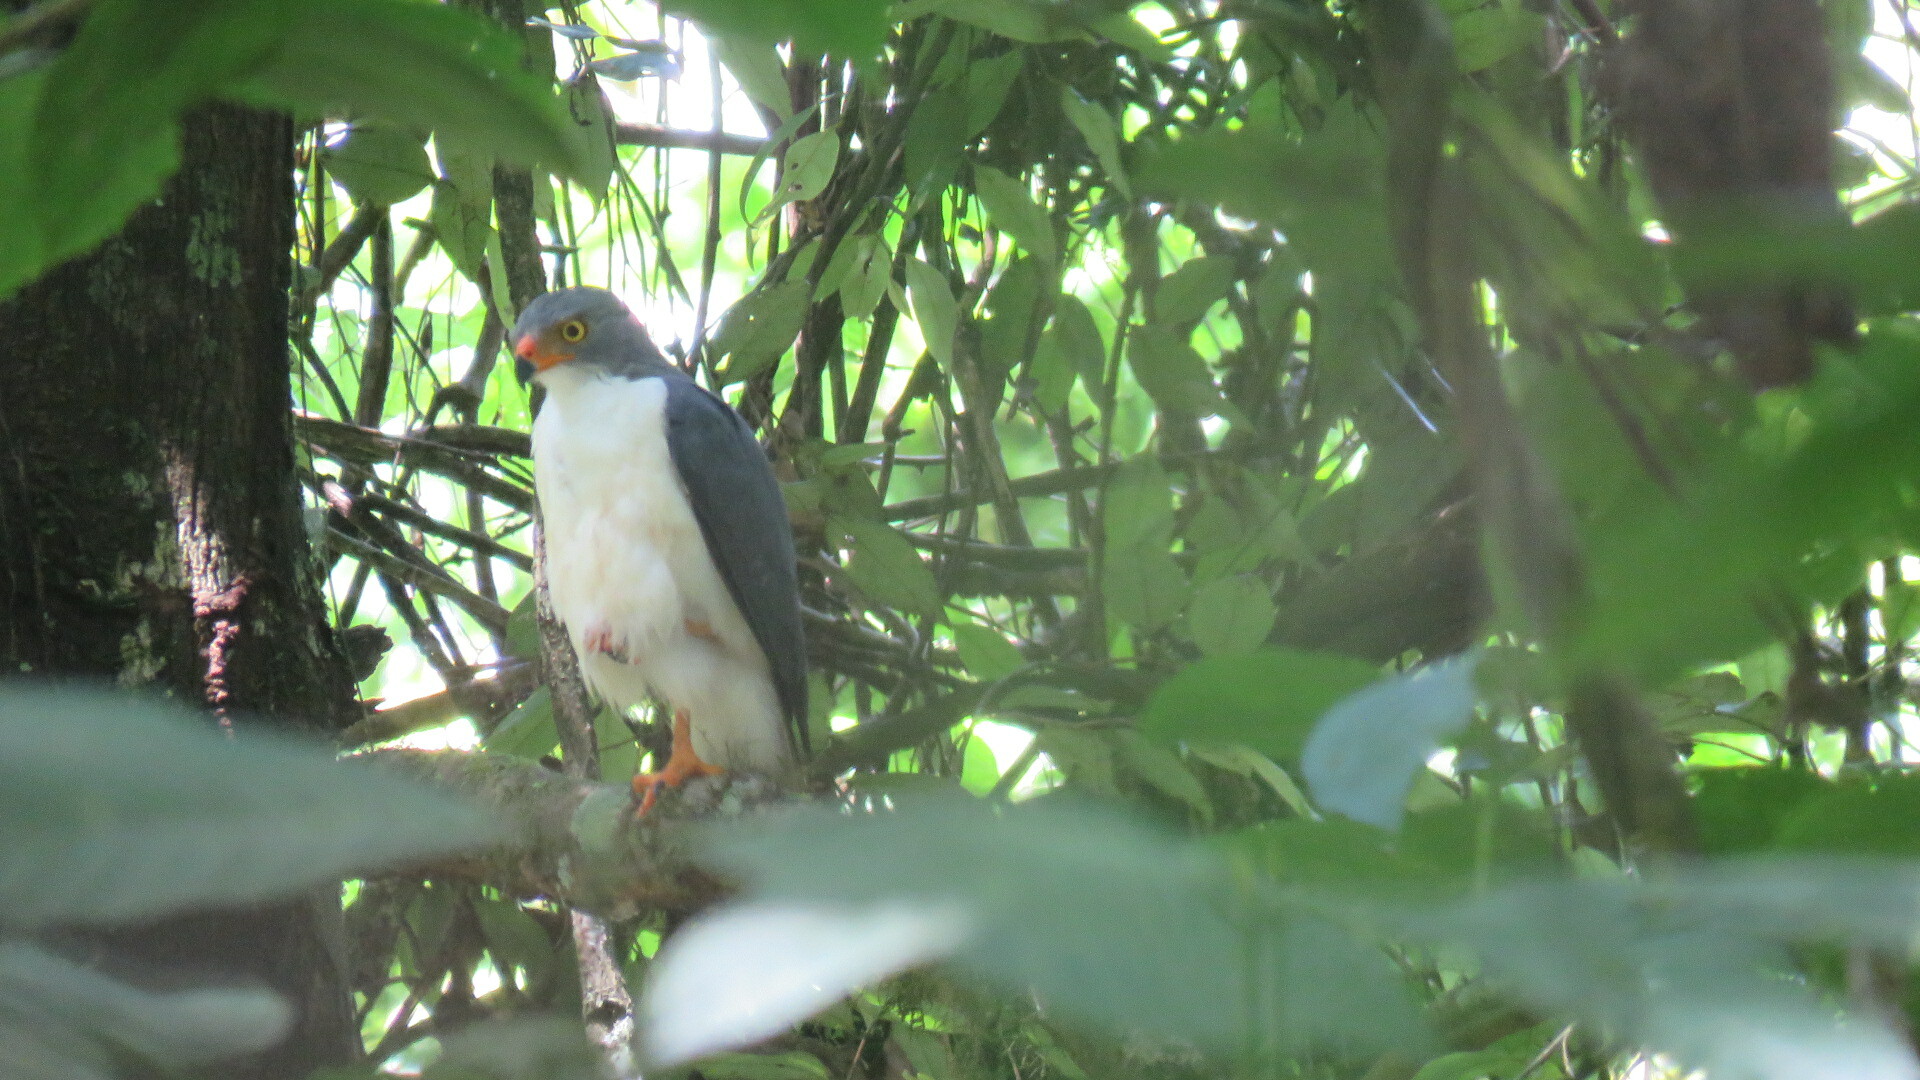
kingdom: Animalia
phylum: Chordata
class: Aves
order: Accipitriformes
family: Accipitridae
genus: Leucopternis
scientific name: Leucopternis semiplumbeus
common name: Semiplumbeous hawk
